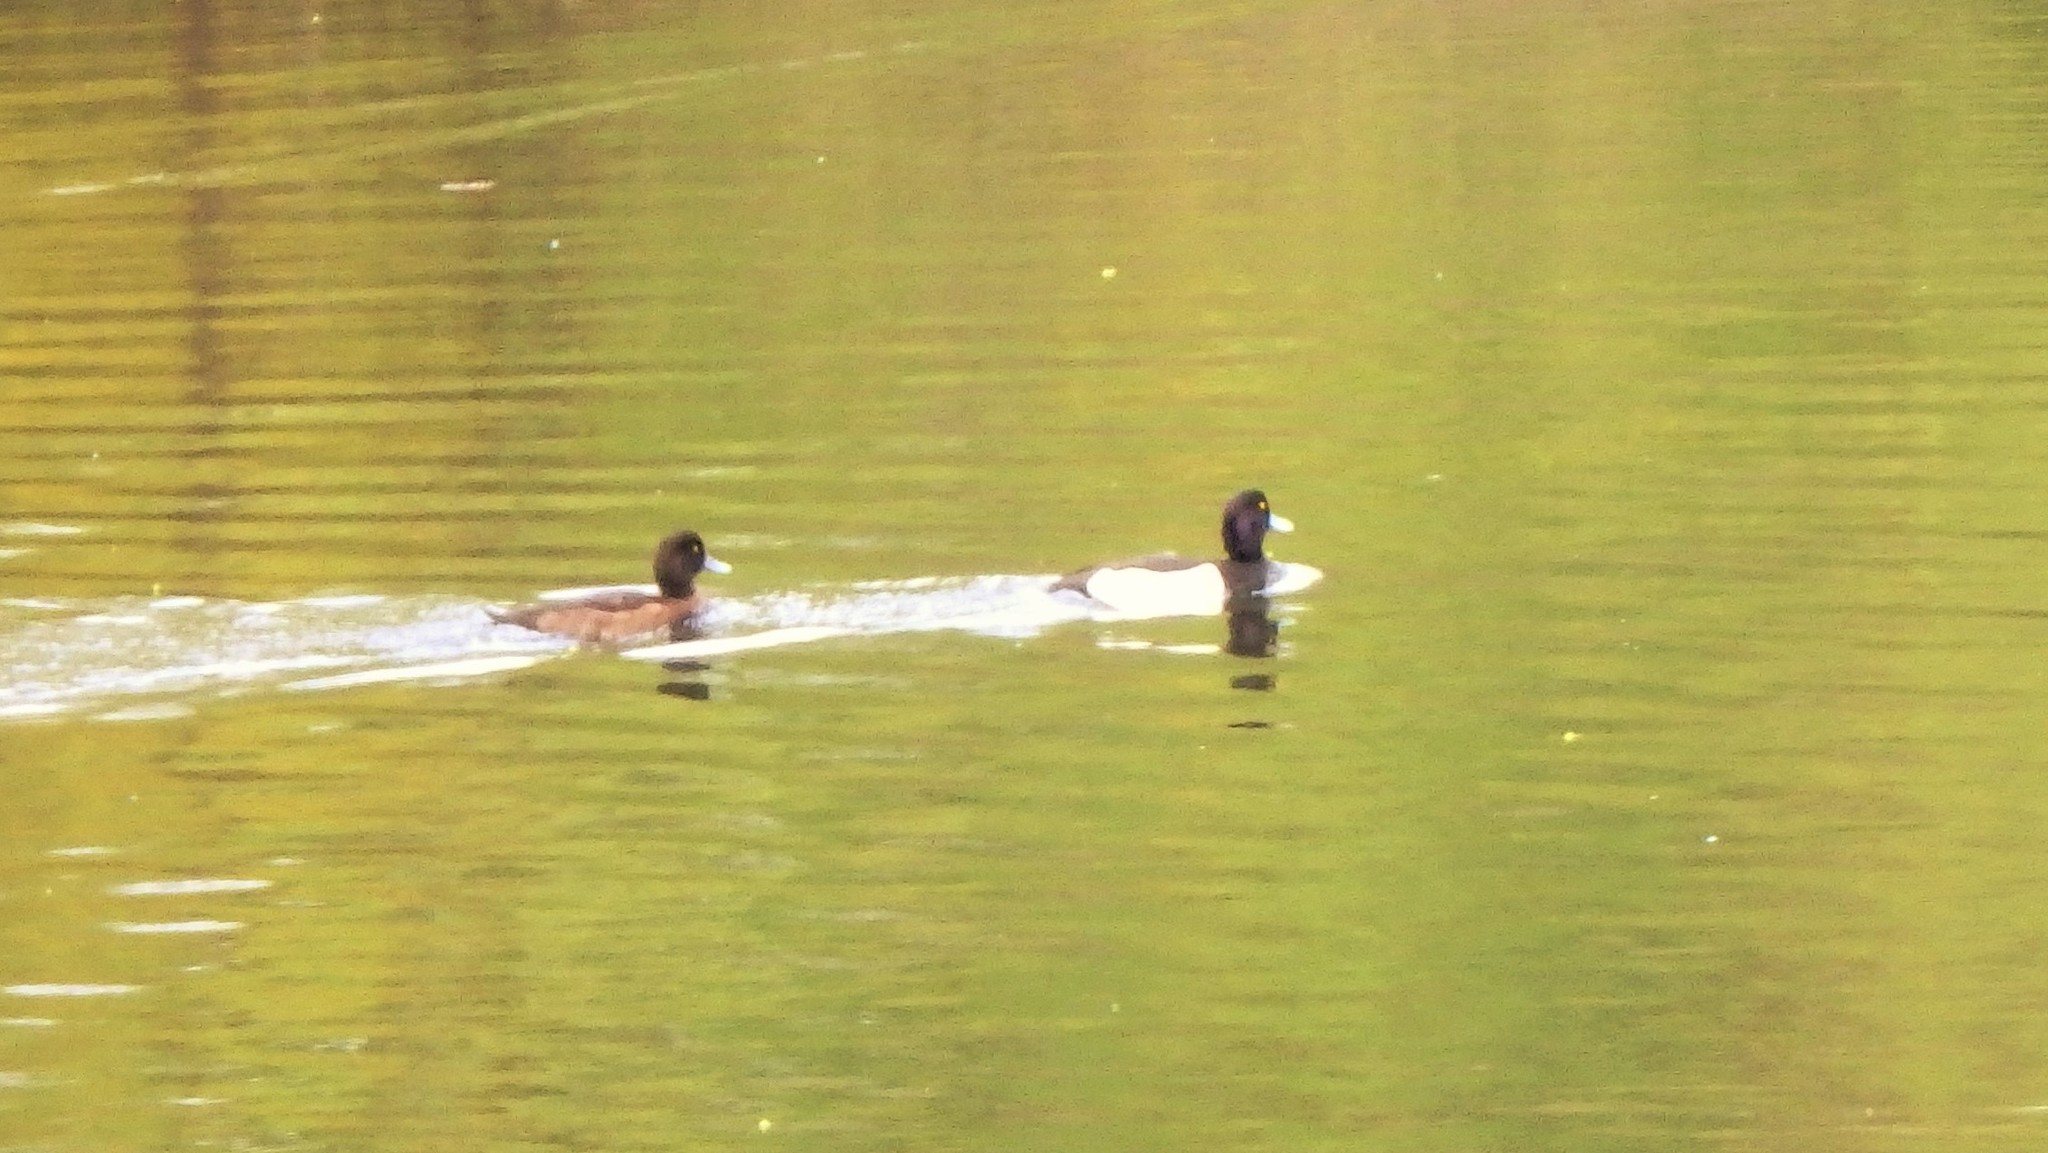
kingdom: Animalia
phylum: Chordata
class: Aves
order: Anseriformes
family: Anatidae
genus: Aythya
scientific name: Aythya fuligula
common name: Tufted duck
